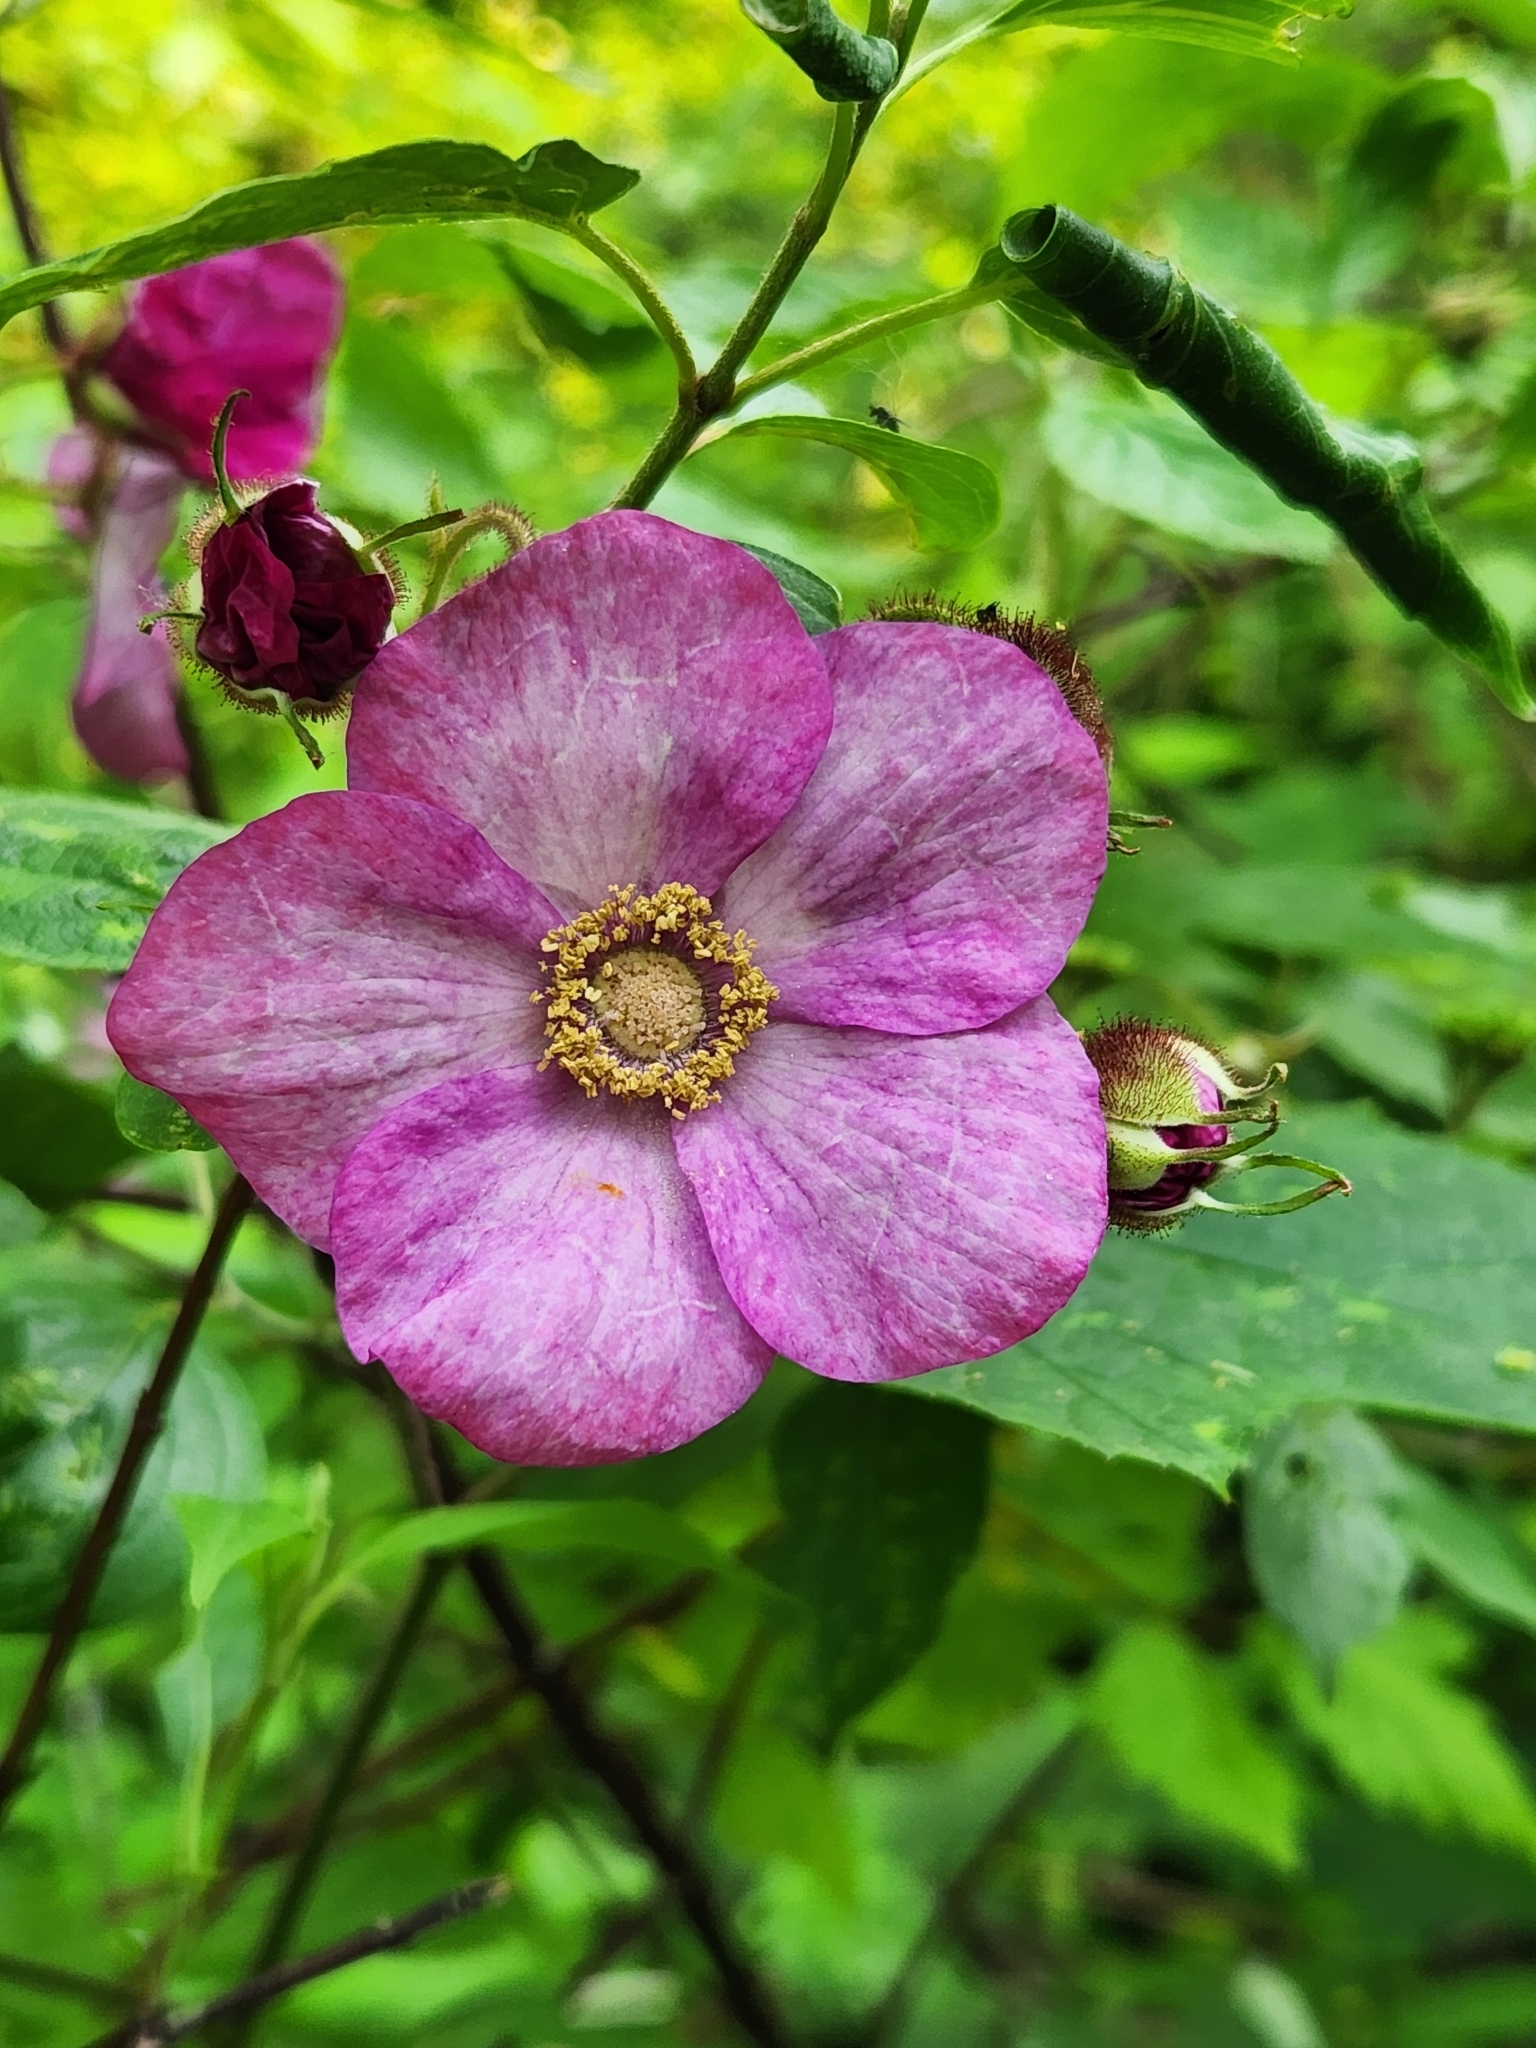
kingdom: Plantae
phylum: Tracheophyta
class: Magnoliopsida
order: Rosales
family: Rosaceae
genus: Rubus
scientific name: Rubus odoratus
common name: Purple-flowered raspberry
